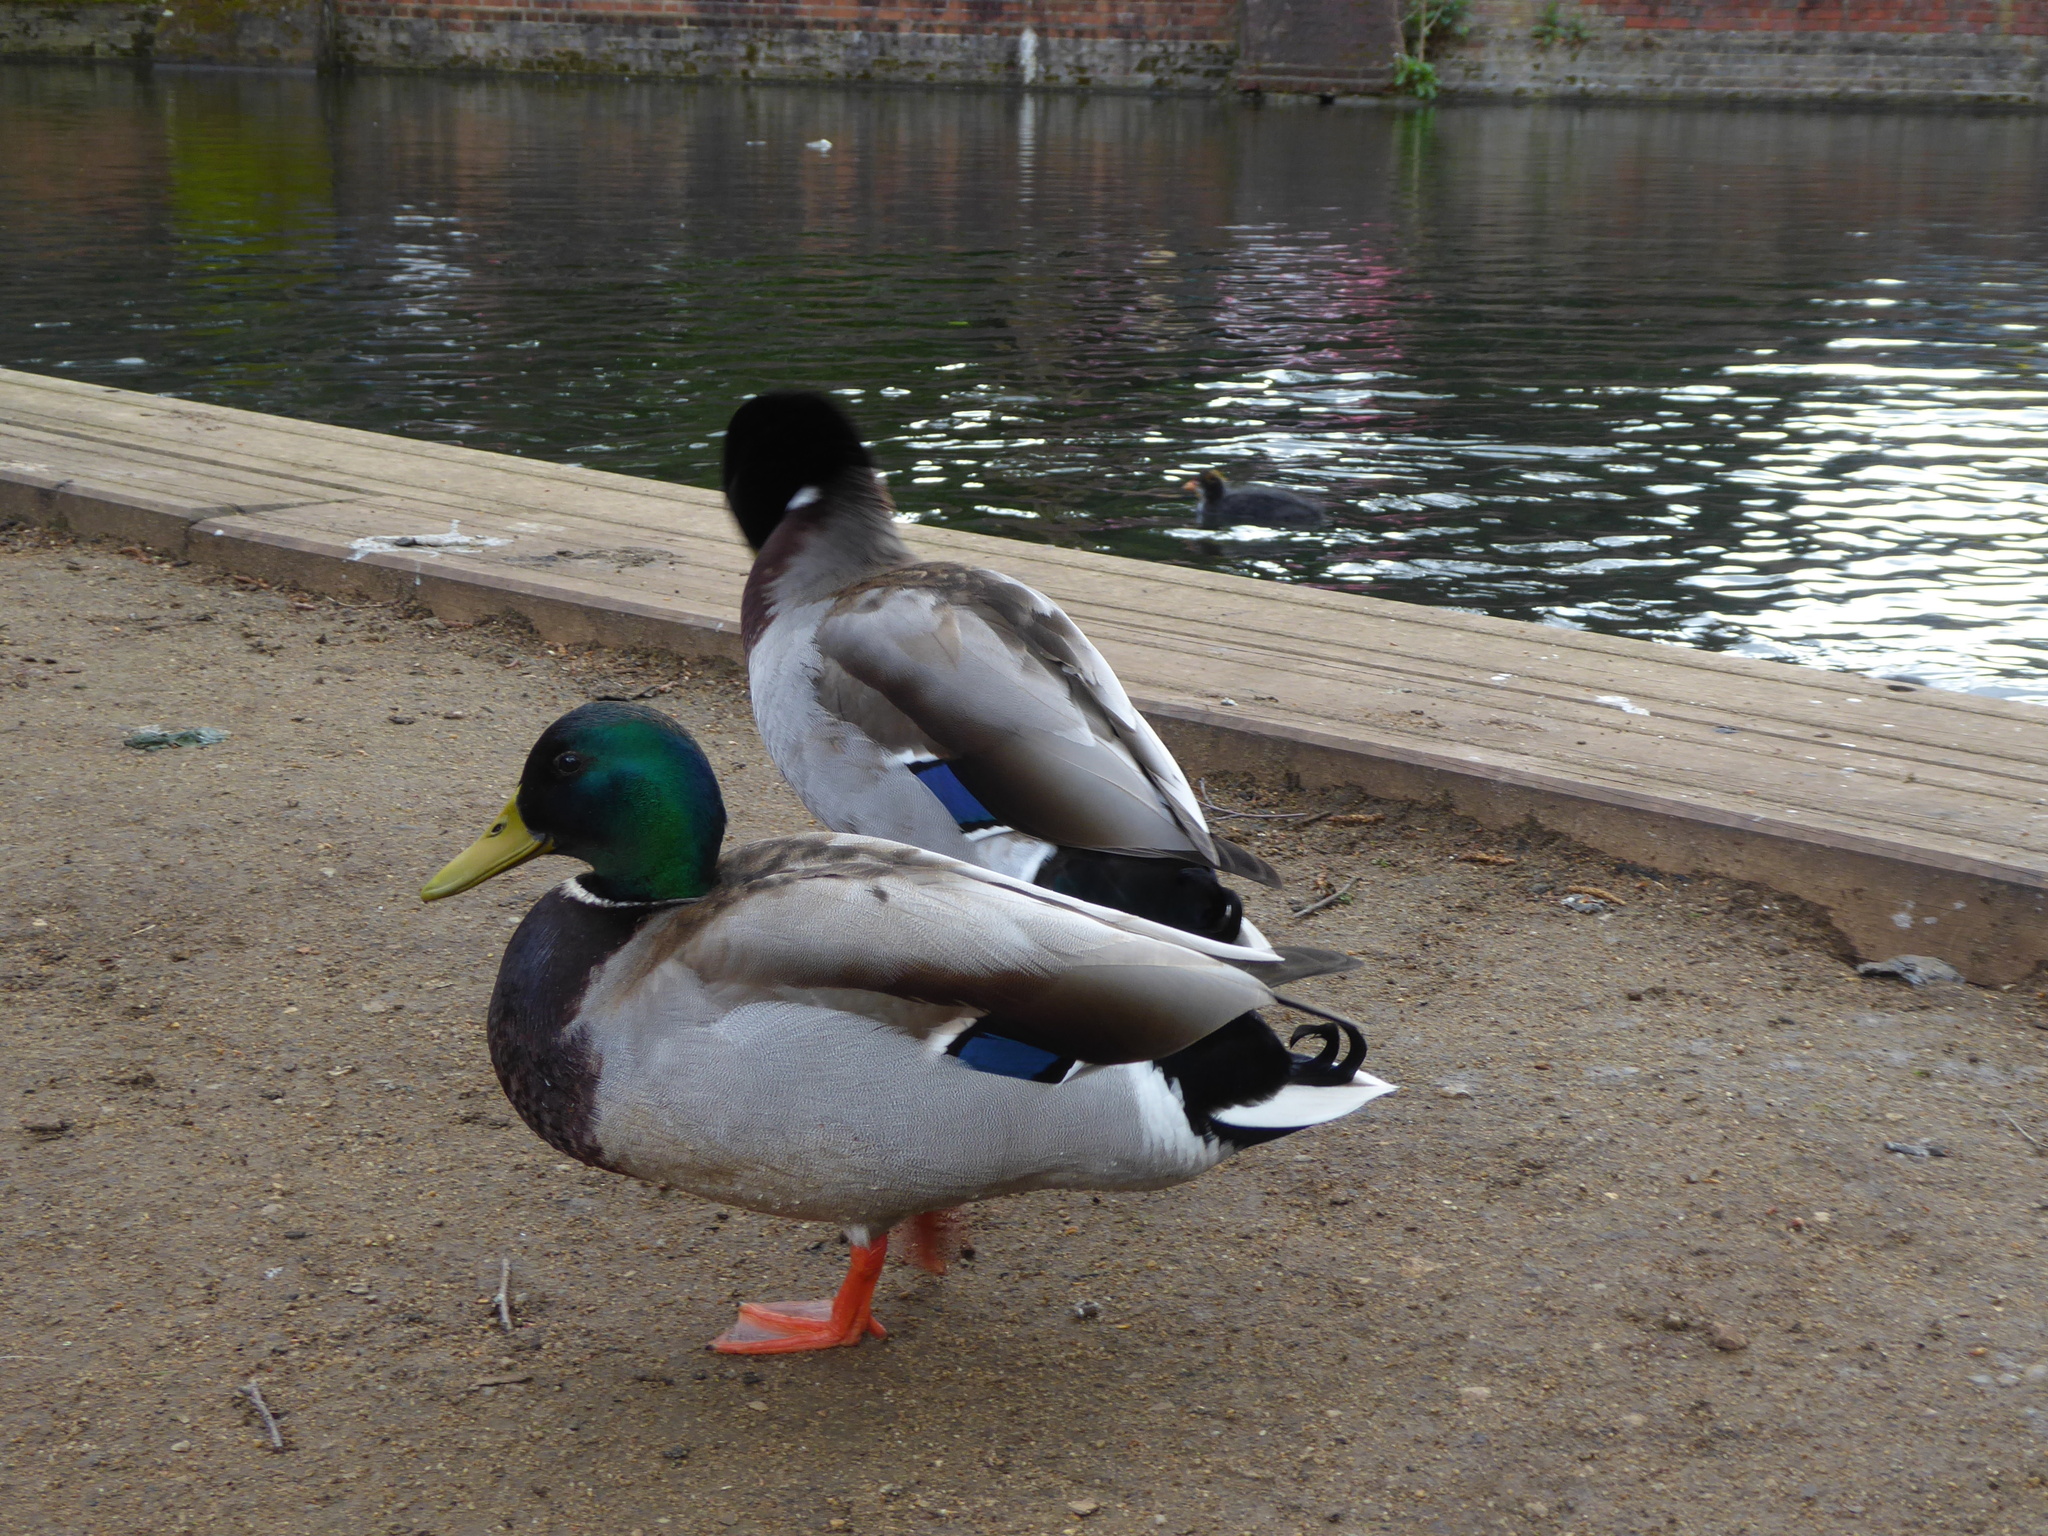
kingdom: Animalia
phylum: Chordata
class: Aves
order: Anseriformes
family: Anatidae
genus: Anas
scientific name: Anas platyrhynchos
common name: Mallard
